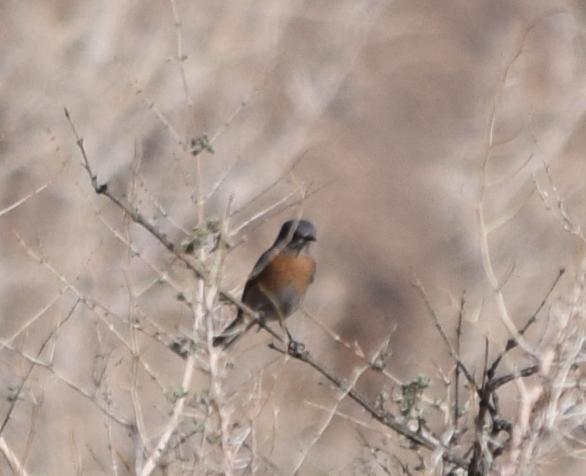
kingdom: Animalia
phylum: Chordata
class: Aves
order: Passeriformes
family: Turdidae
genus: Sialia
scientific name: Sialia mexicana
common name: Western bluebird
